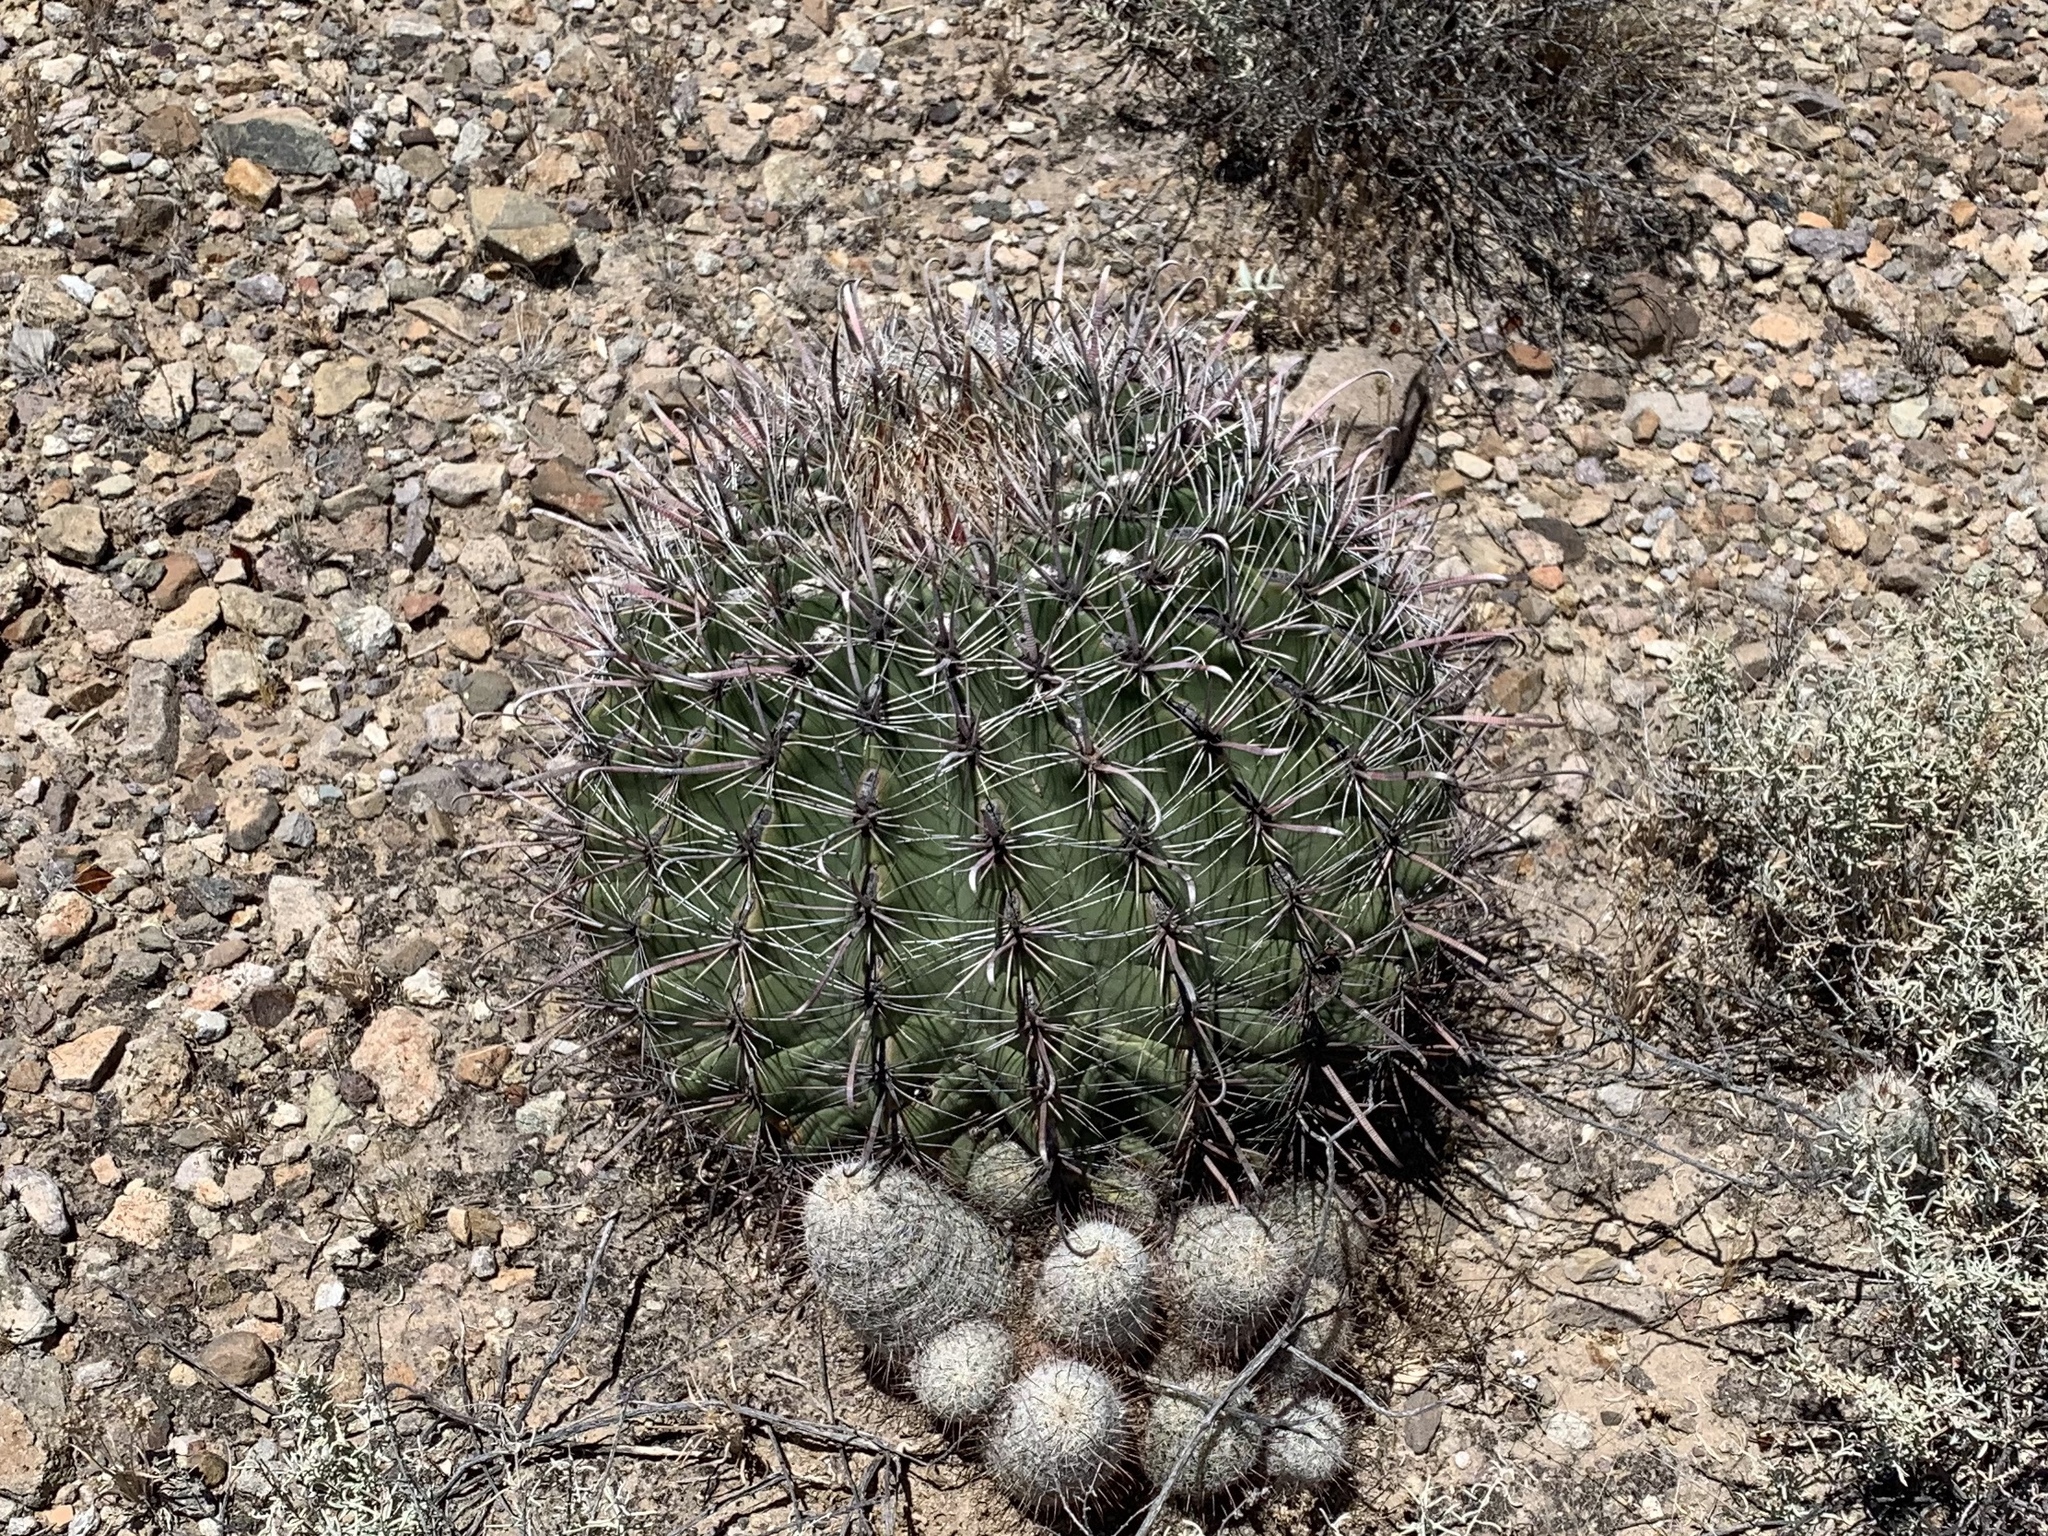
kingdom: Plantae
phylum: Tracheophyta
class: Magnoliopsida
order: Caryophyllales
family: Cactaceae
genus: Ferocactus
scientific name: Ferocactus wislizeni
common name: Candy barrel cactus
